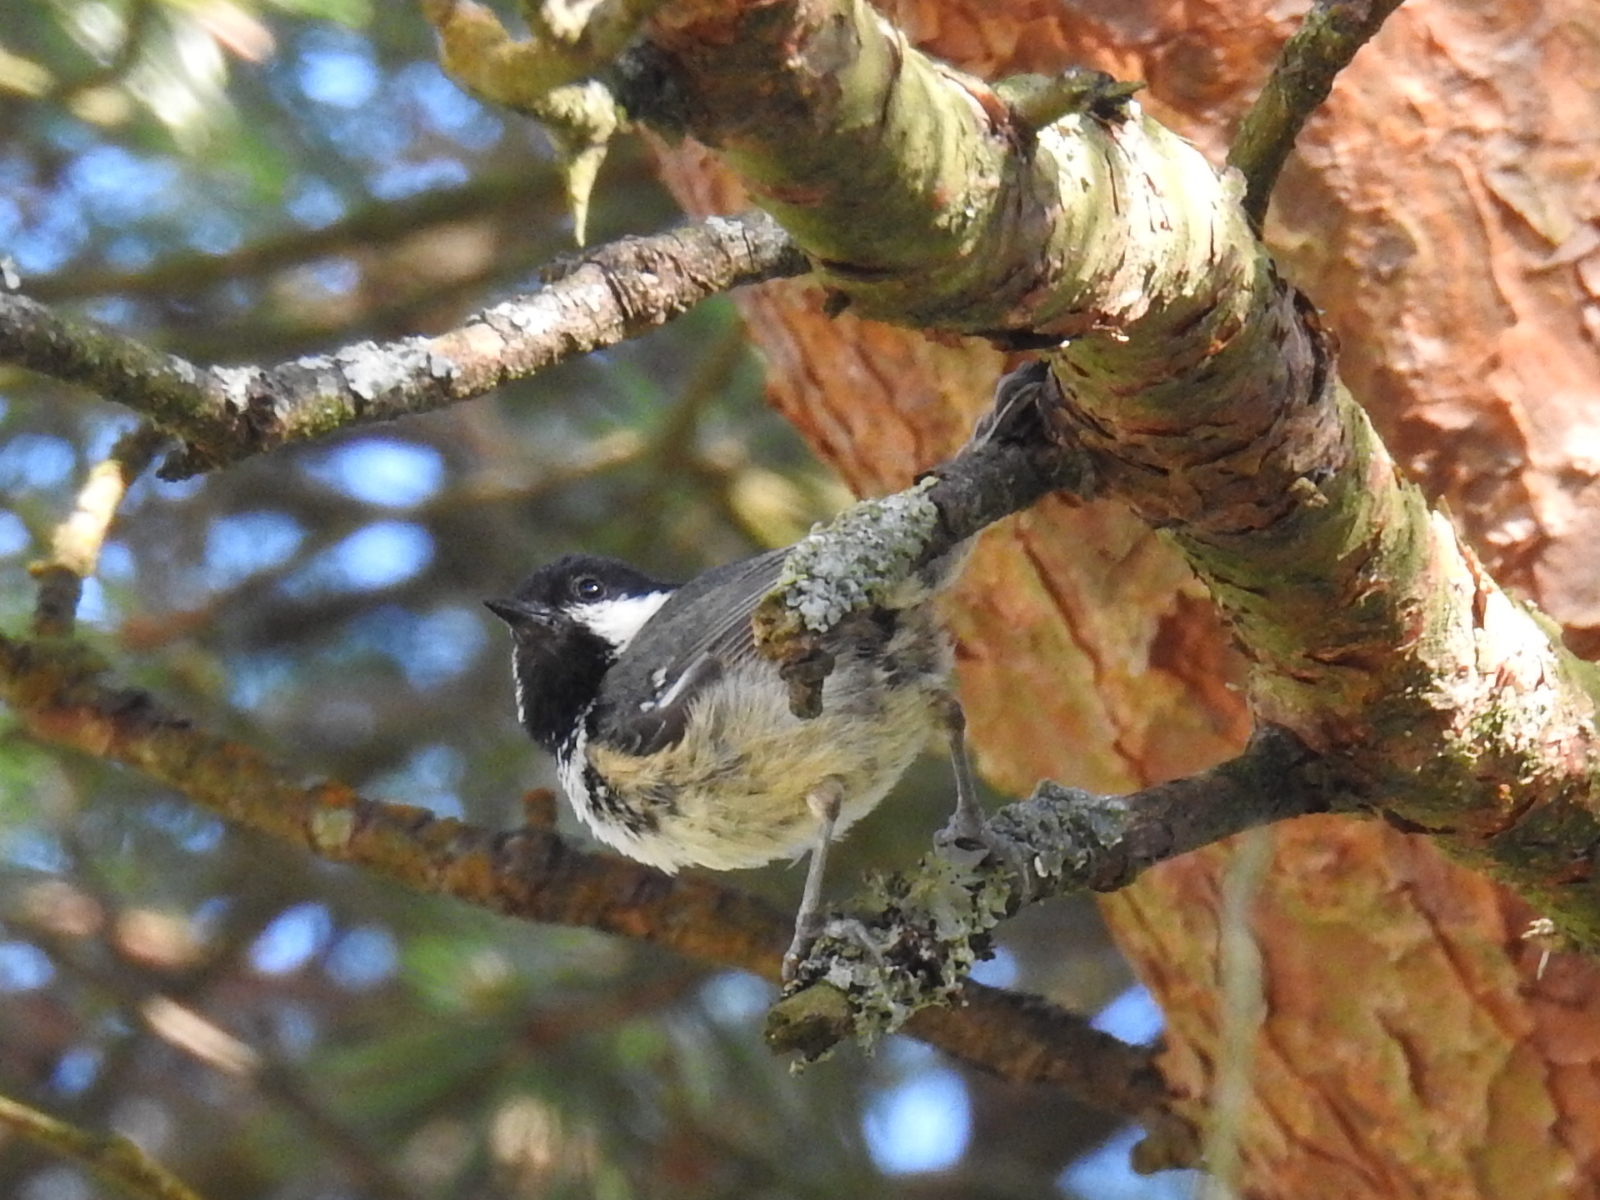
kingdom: Animalia
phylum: Chordata
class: Aves
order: Passeriformes
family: Paridae
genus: Periparus
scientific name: Periparus ater
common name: Coal tit
